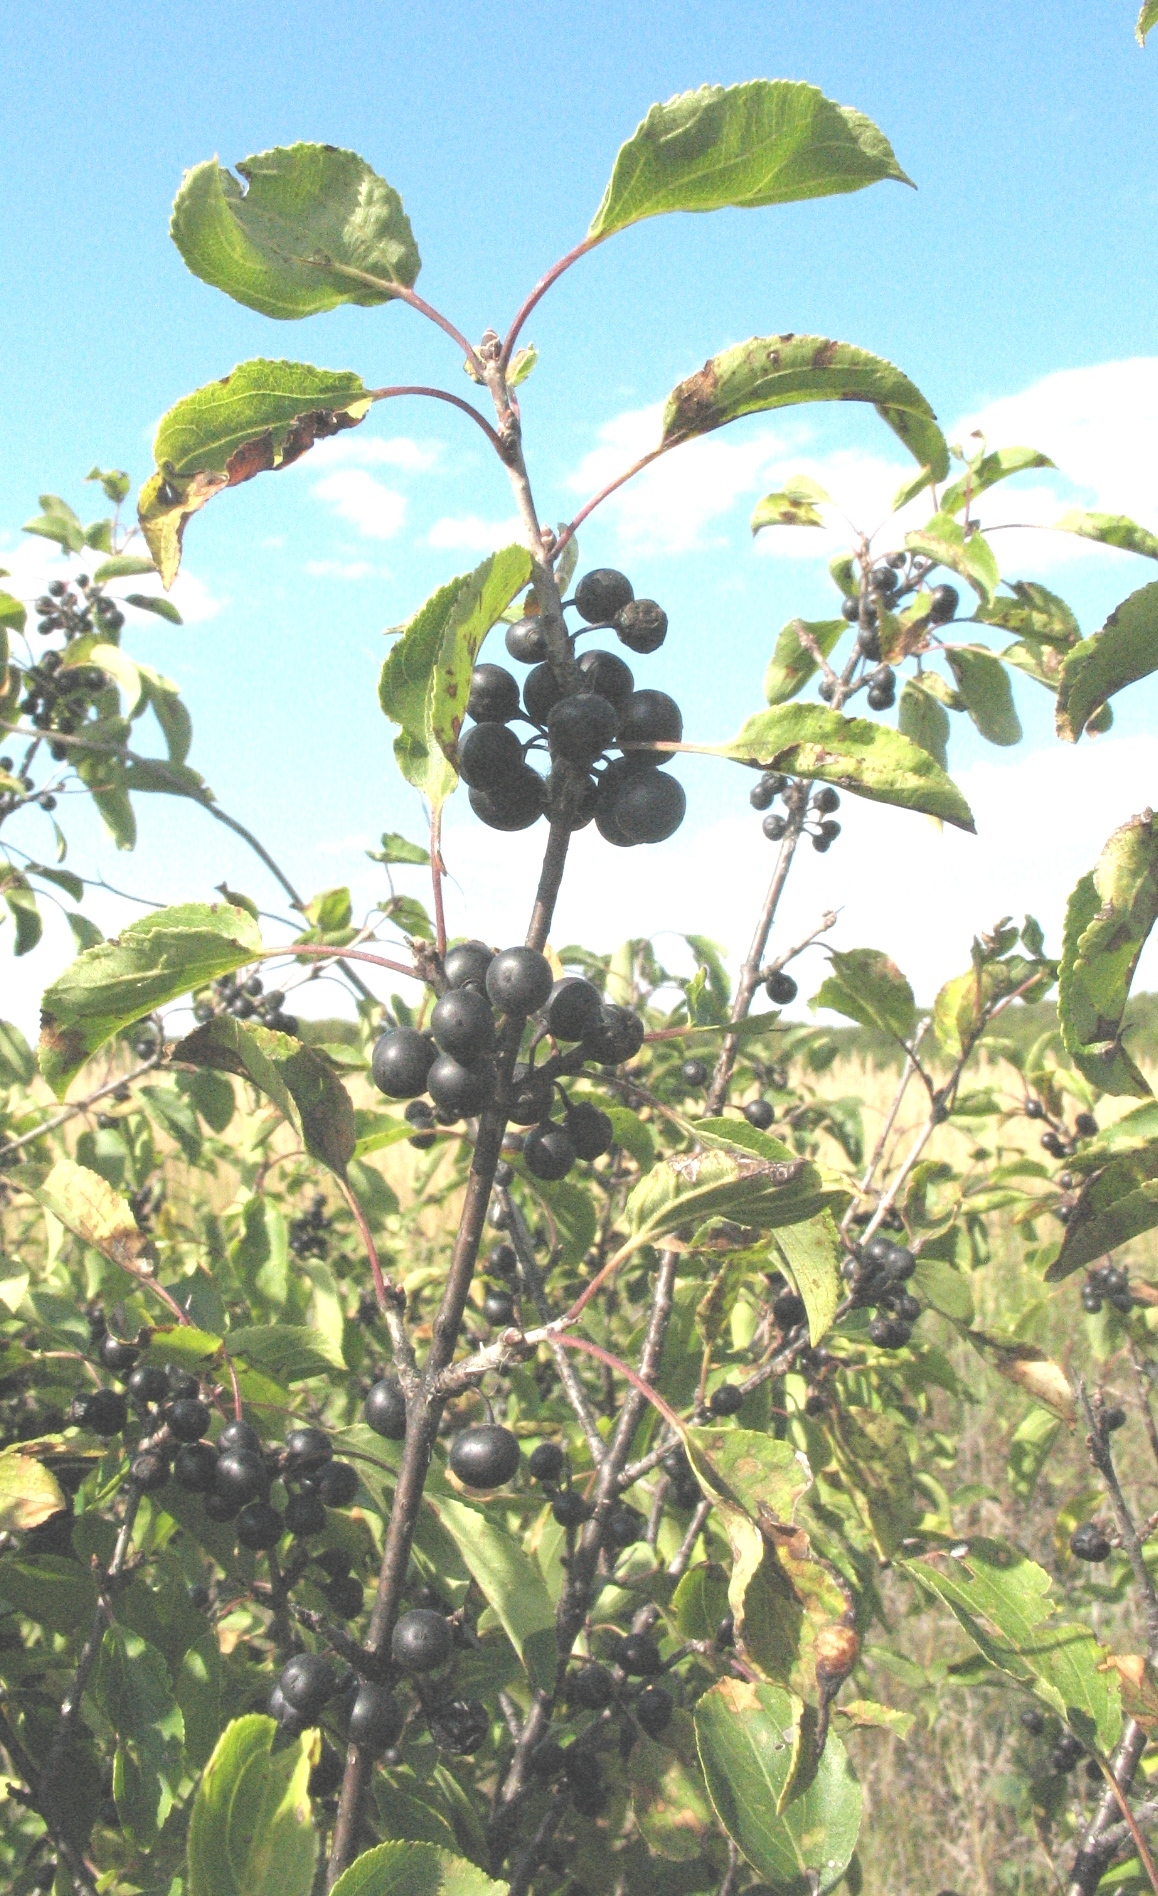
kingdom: Plantae
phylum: Tracheophyta
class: Magnoliopsida
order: Rosales
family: Rhamnaceae
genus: Rhamnus
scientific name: Rhamnus cathartica
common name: Common buckthorn
